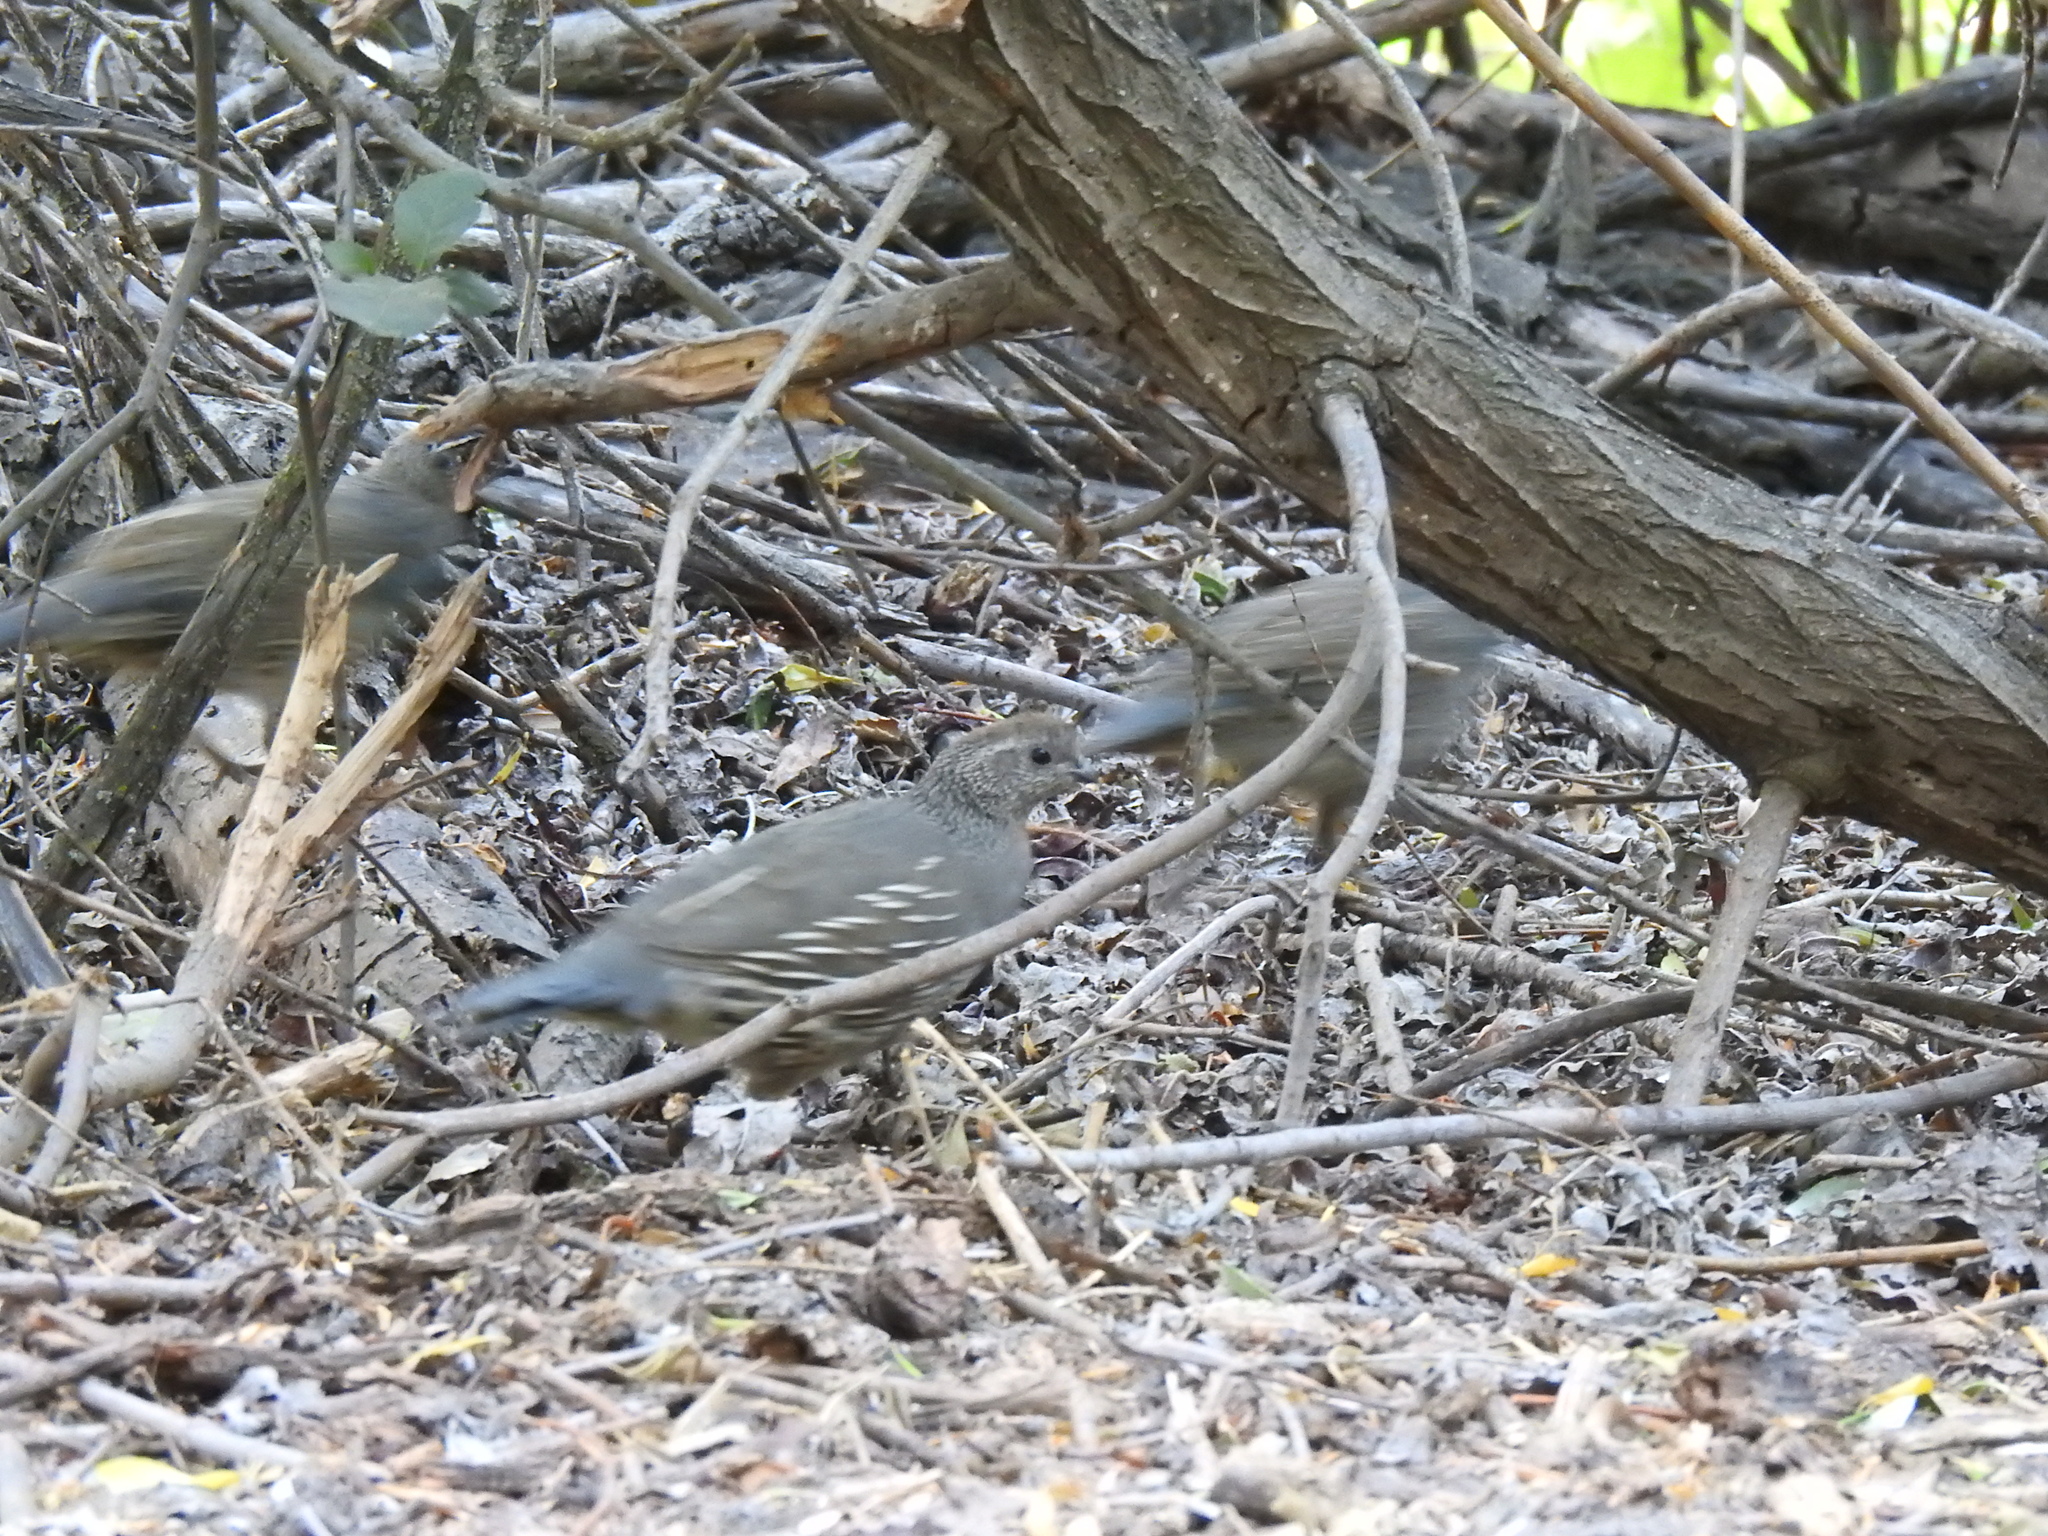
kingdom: Animalia
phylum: Chordata
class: Aves
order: Galliformes
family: Odontophoridae
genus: Callipepla
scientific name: Callipepla californica
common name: California quail
